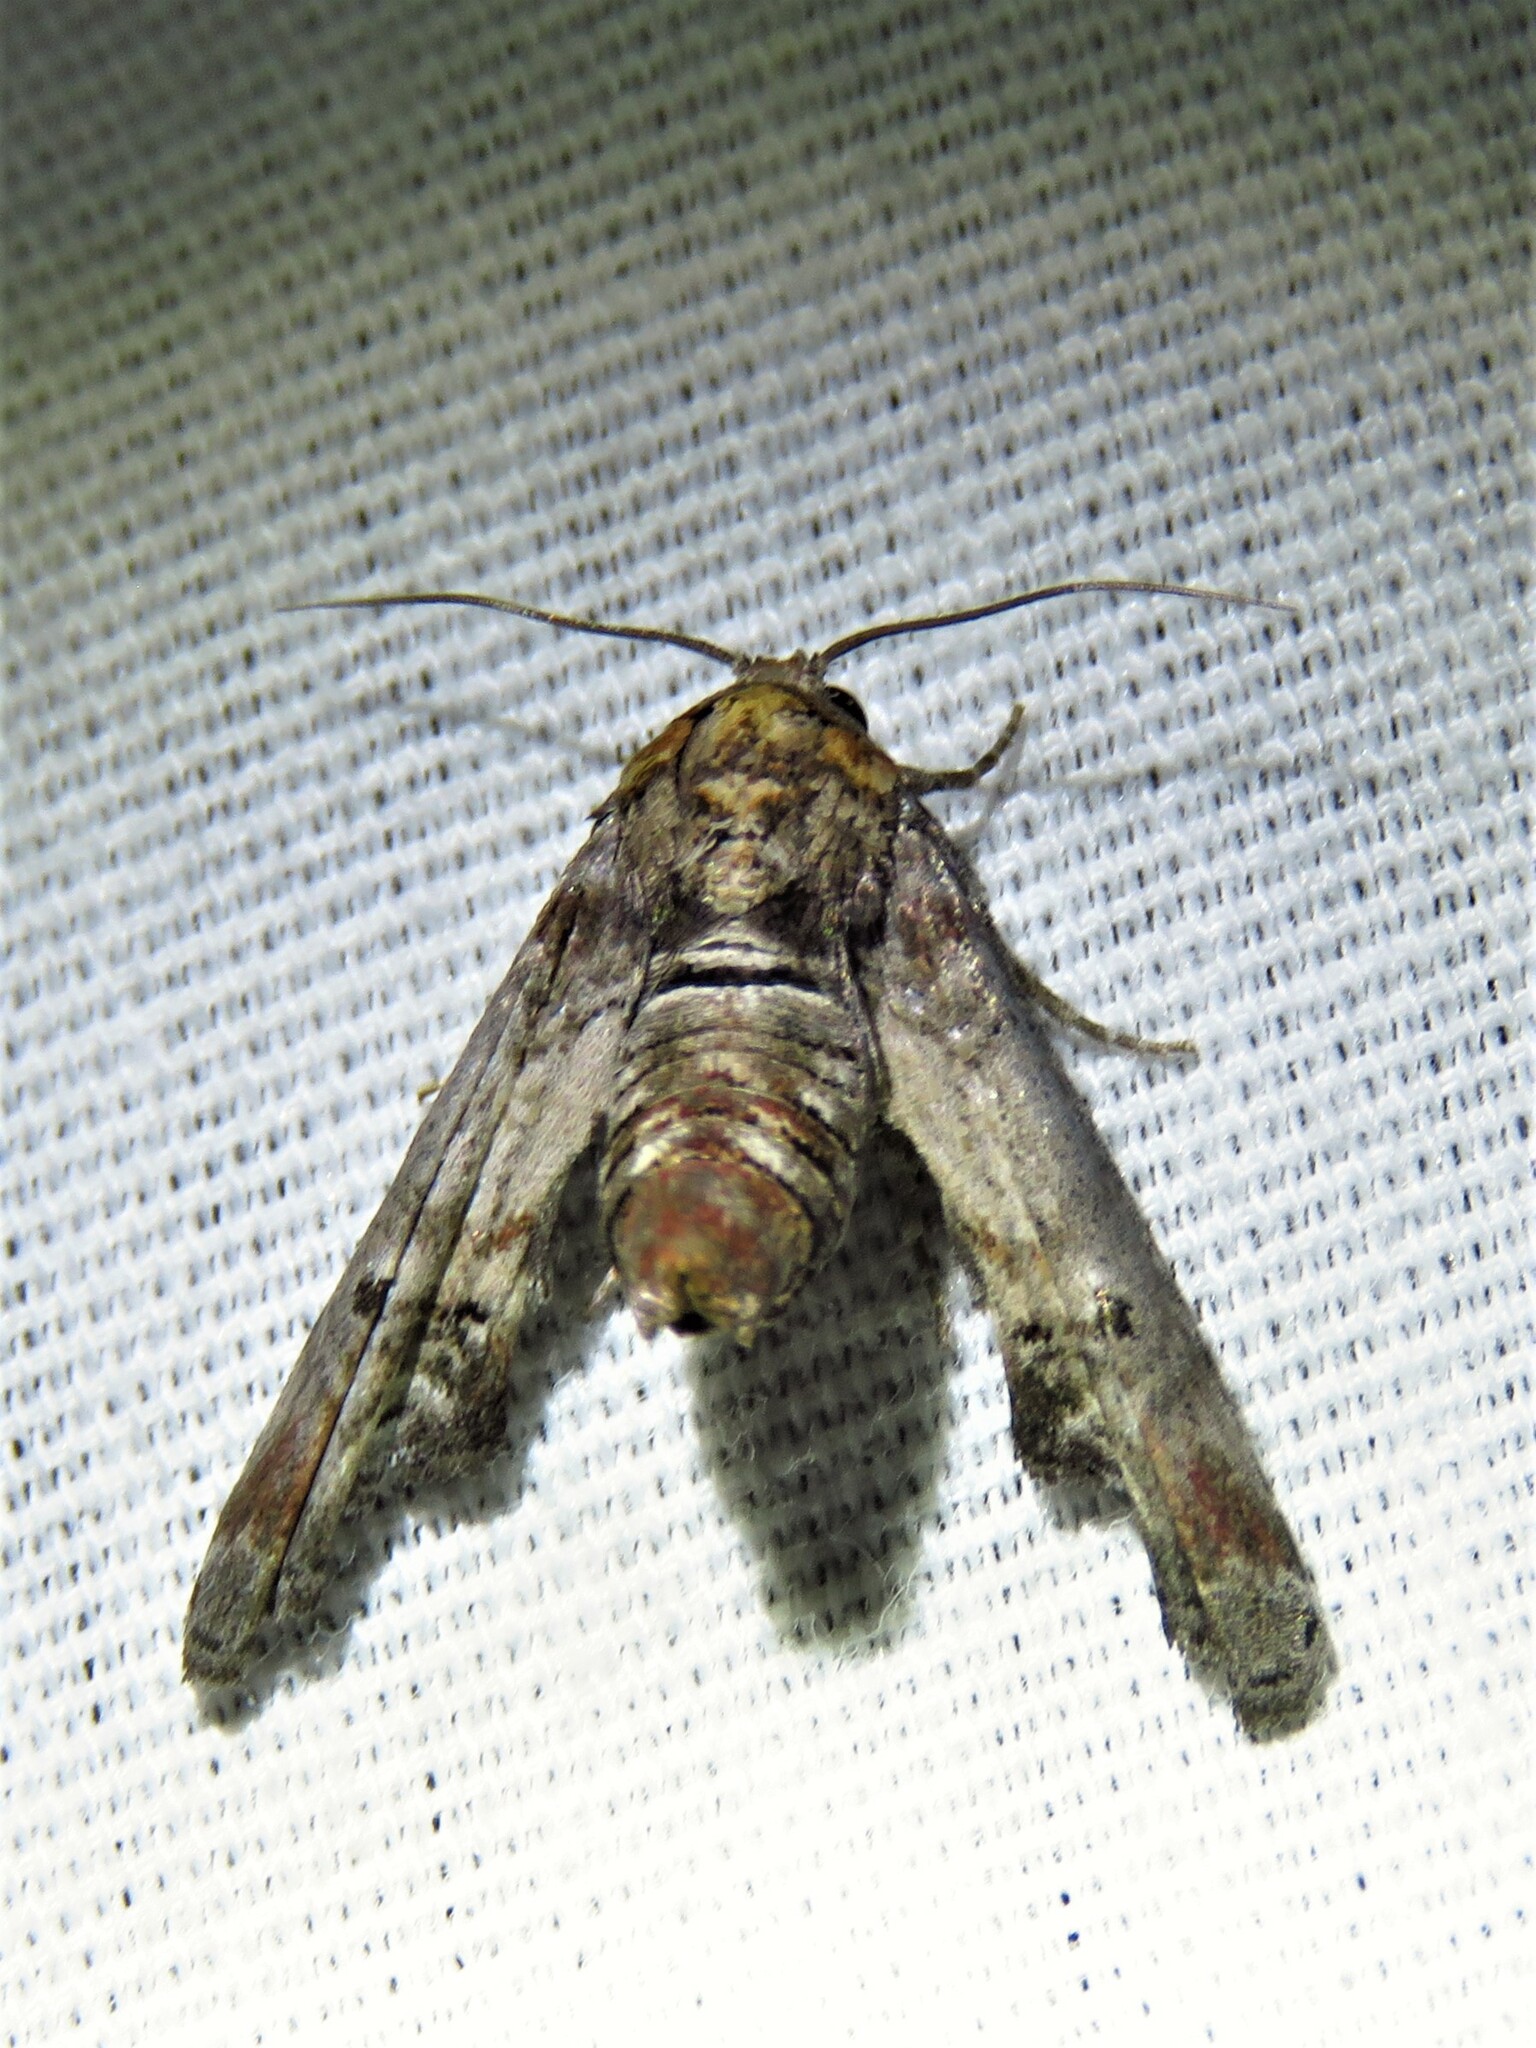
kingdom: Animalia
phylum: Arthropoda
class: Insecta
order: Lepidoptera
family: Euteliidae
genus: Marathyssa
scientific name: Marathyssa inficita
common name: Dark marathyssa moth
